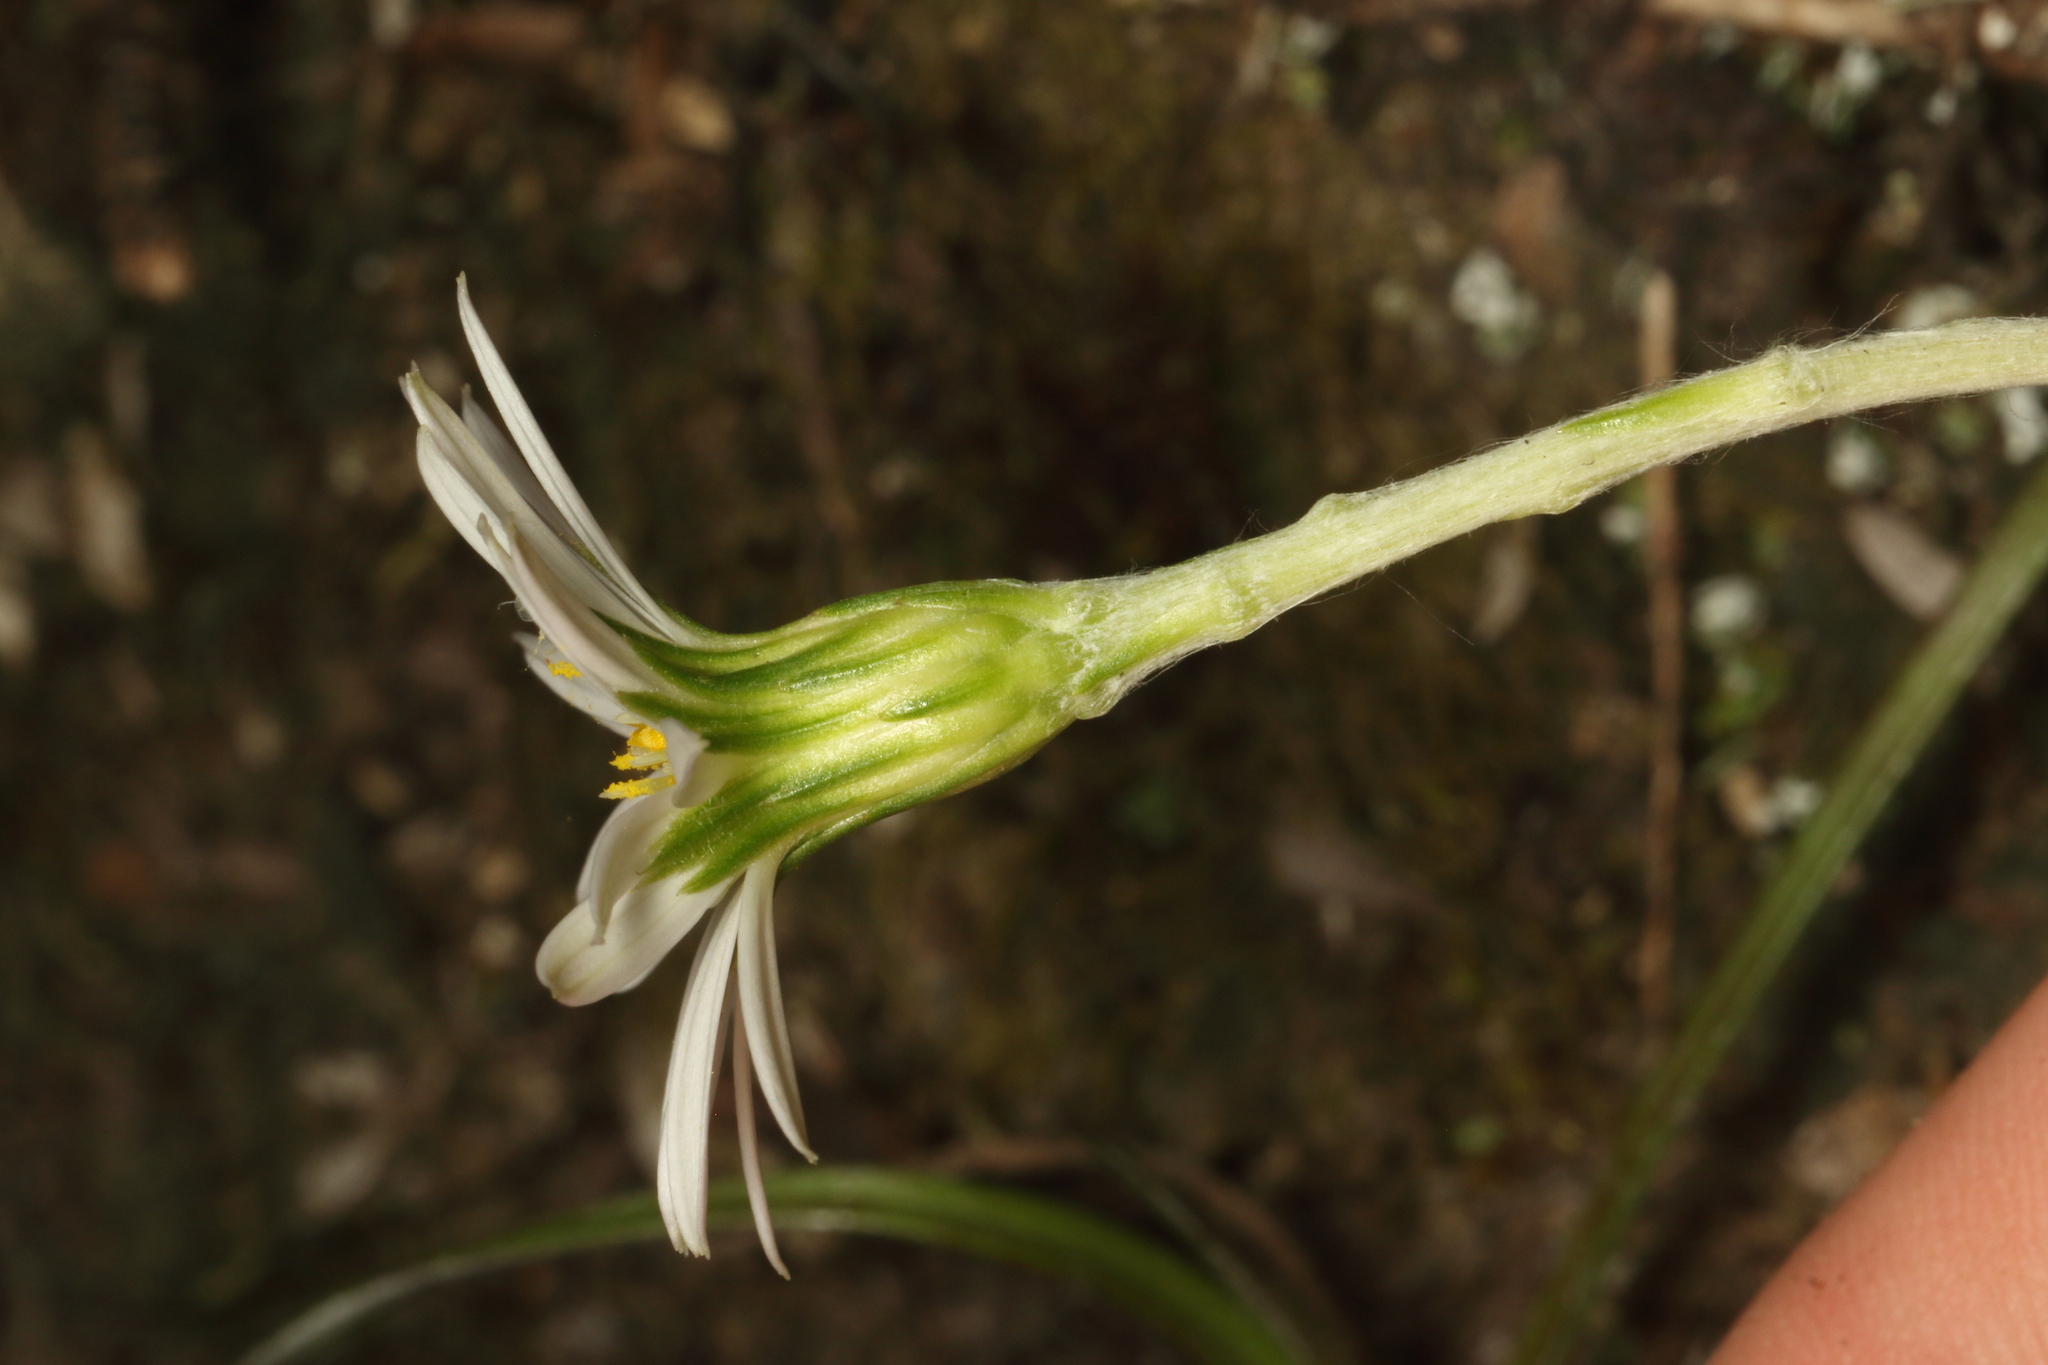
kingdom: Plantae
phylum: Tracheophyta
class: Magnoliopsida
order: Asterales
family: Asteraceae
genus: Celmisia
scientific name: Celmisia adamsii
